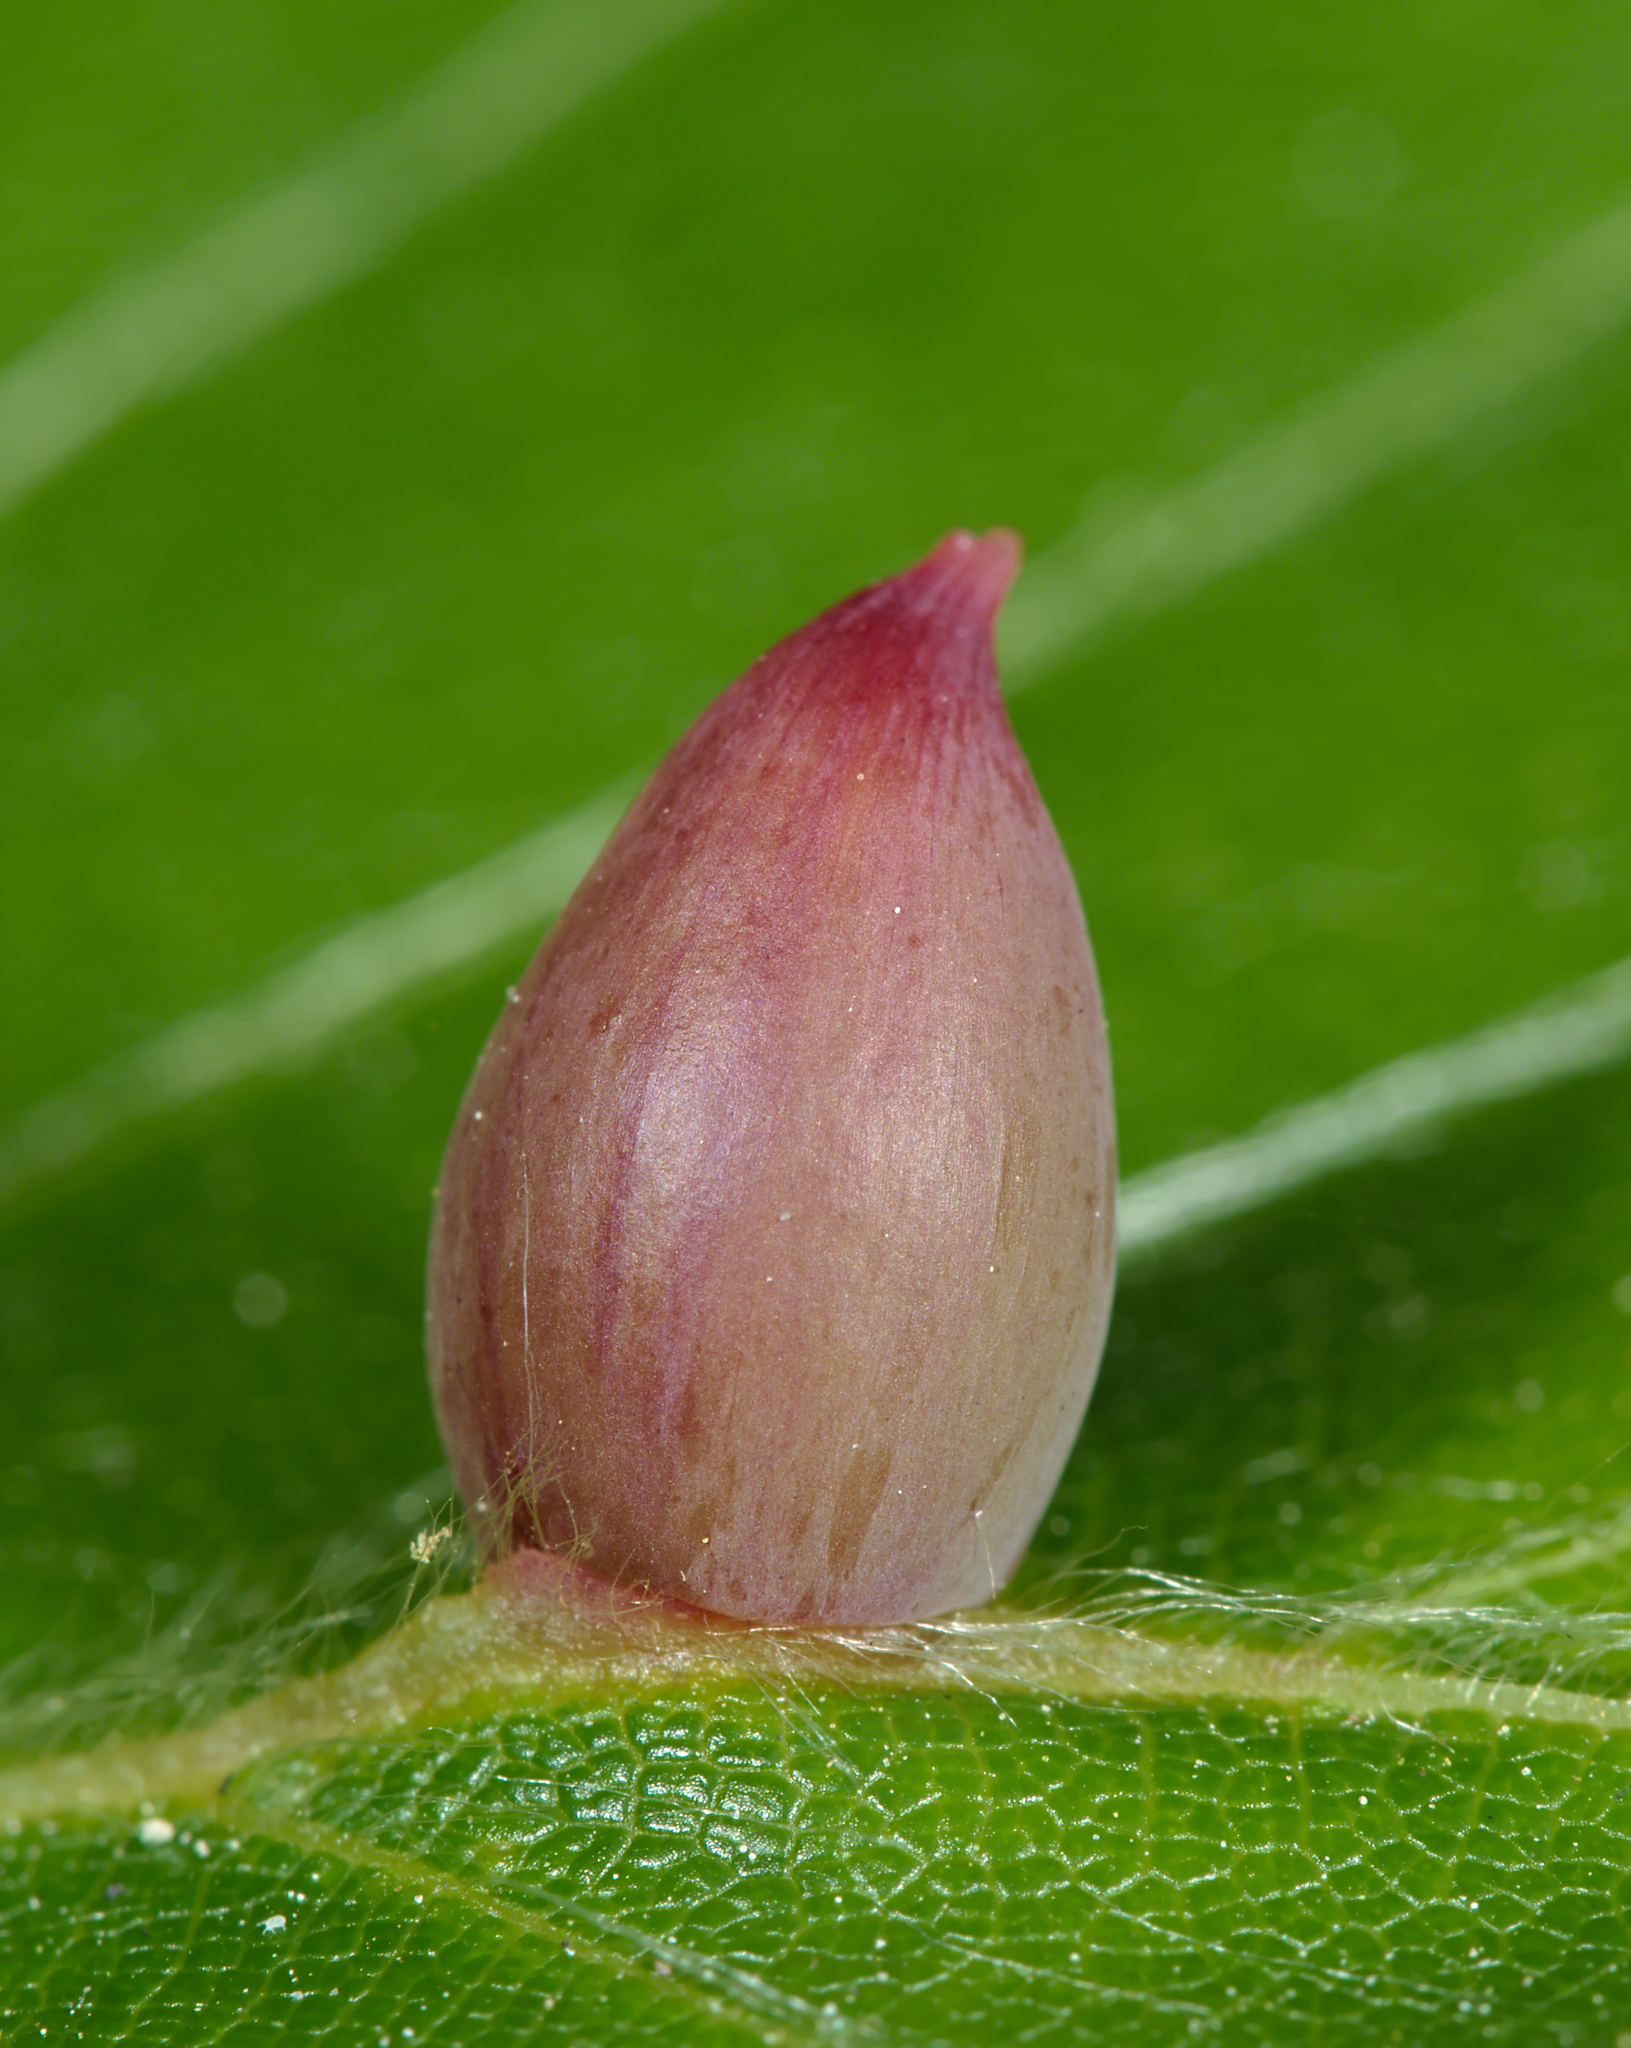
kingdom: Animalia
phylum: Arthropoda
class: Insecta
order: Diptera
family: Cecidomyiidae
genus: Mikiola
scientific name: Mikiola fagi
